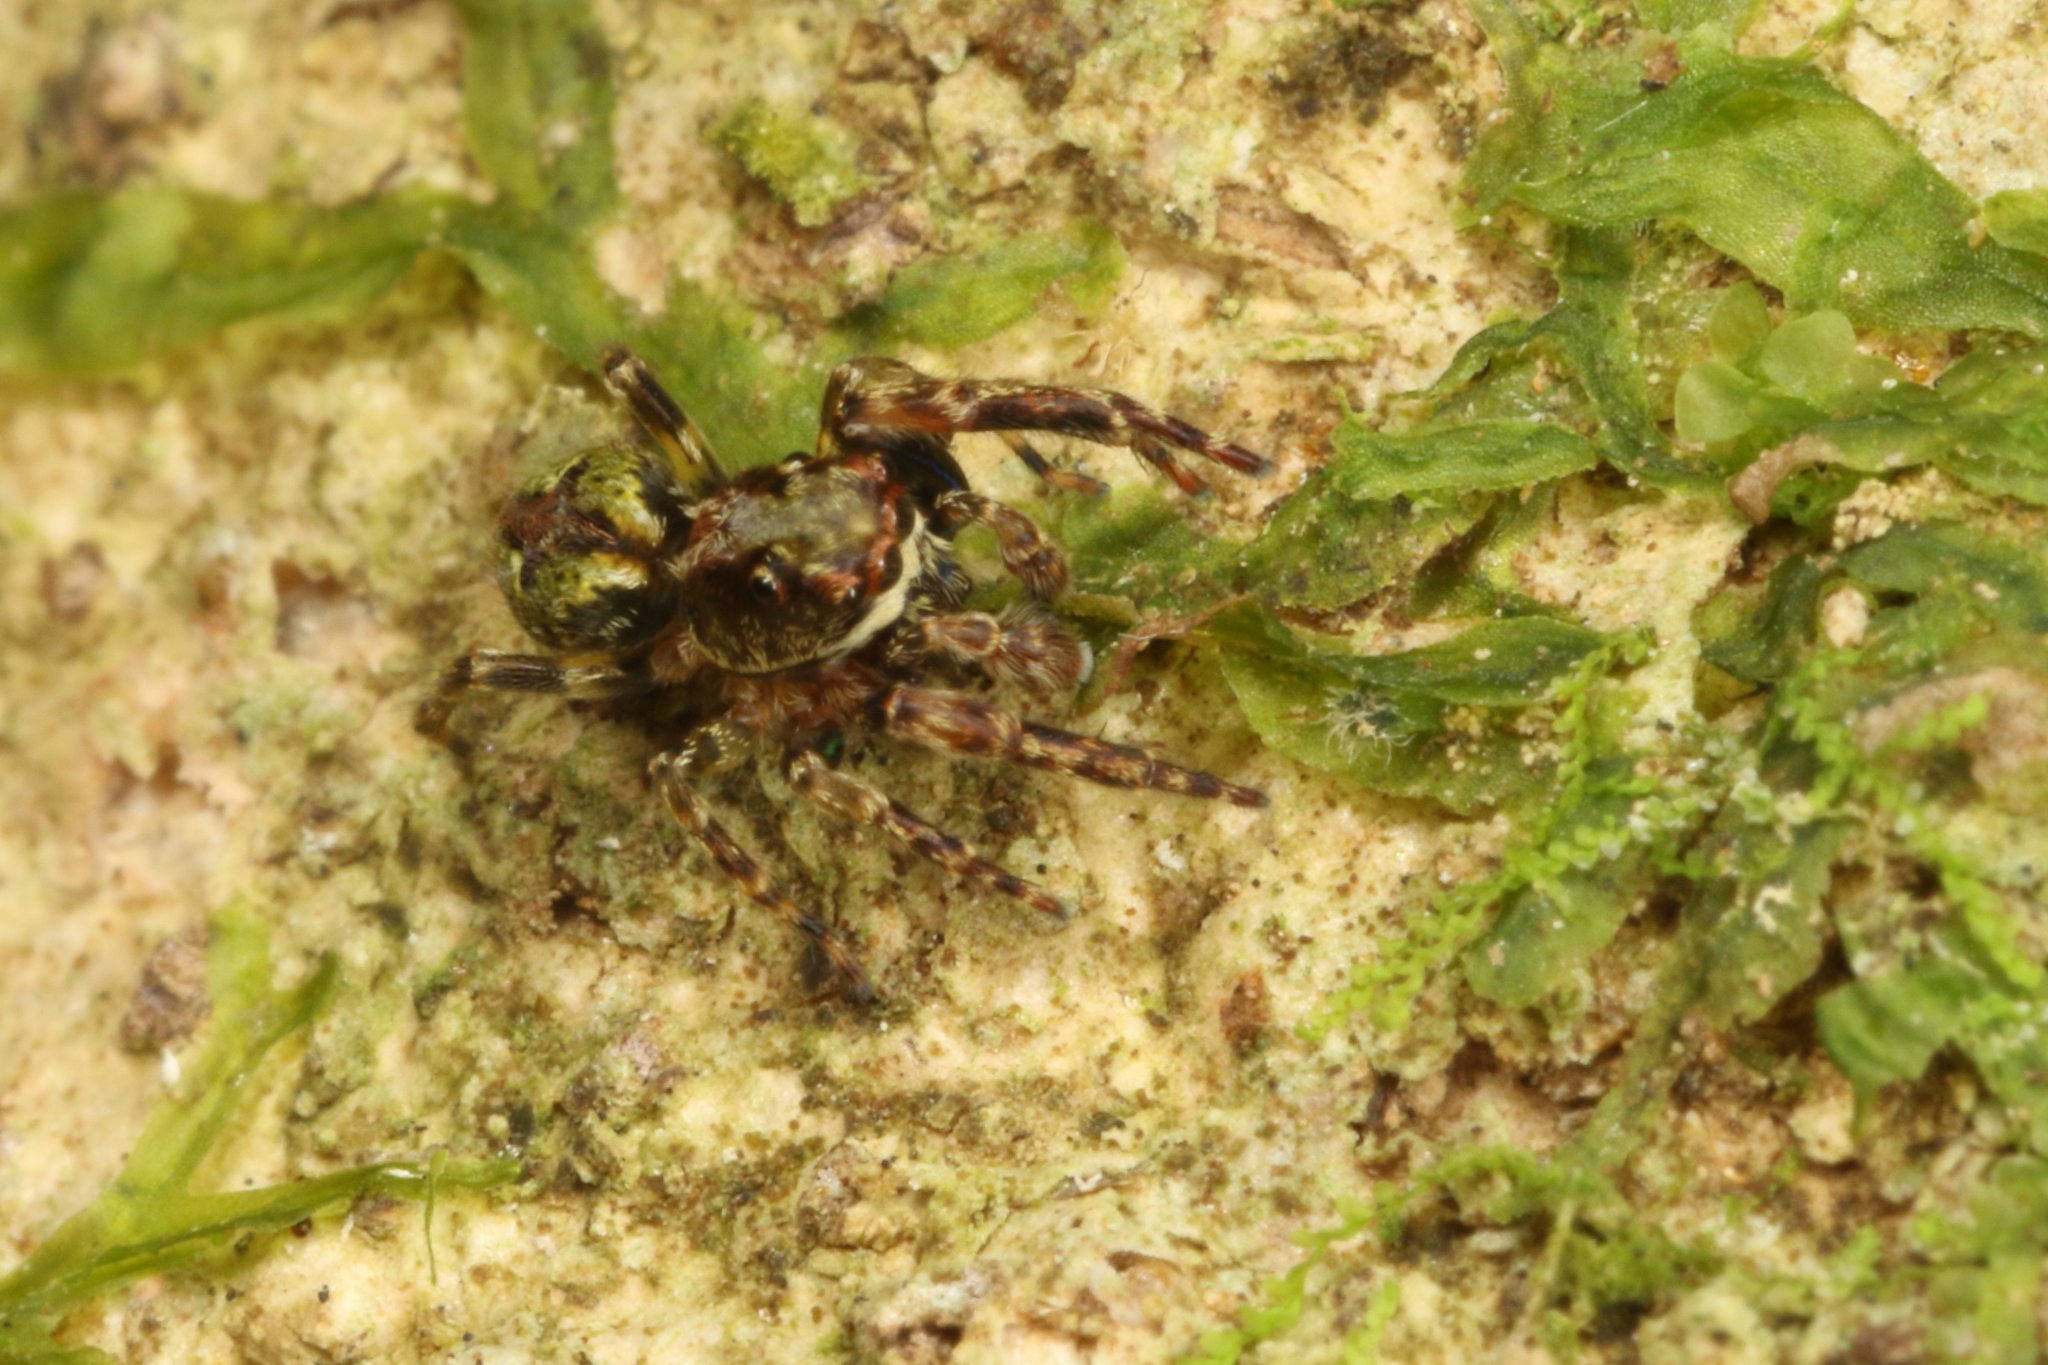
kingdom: Animalia
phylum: Arthropoda
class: Arachnida
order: Araneae
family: Salticidae
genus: Hinewaia
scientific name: Hinewaia embolica
